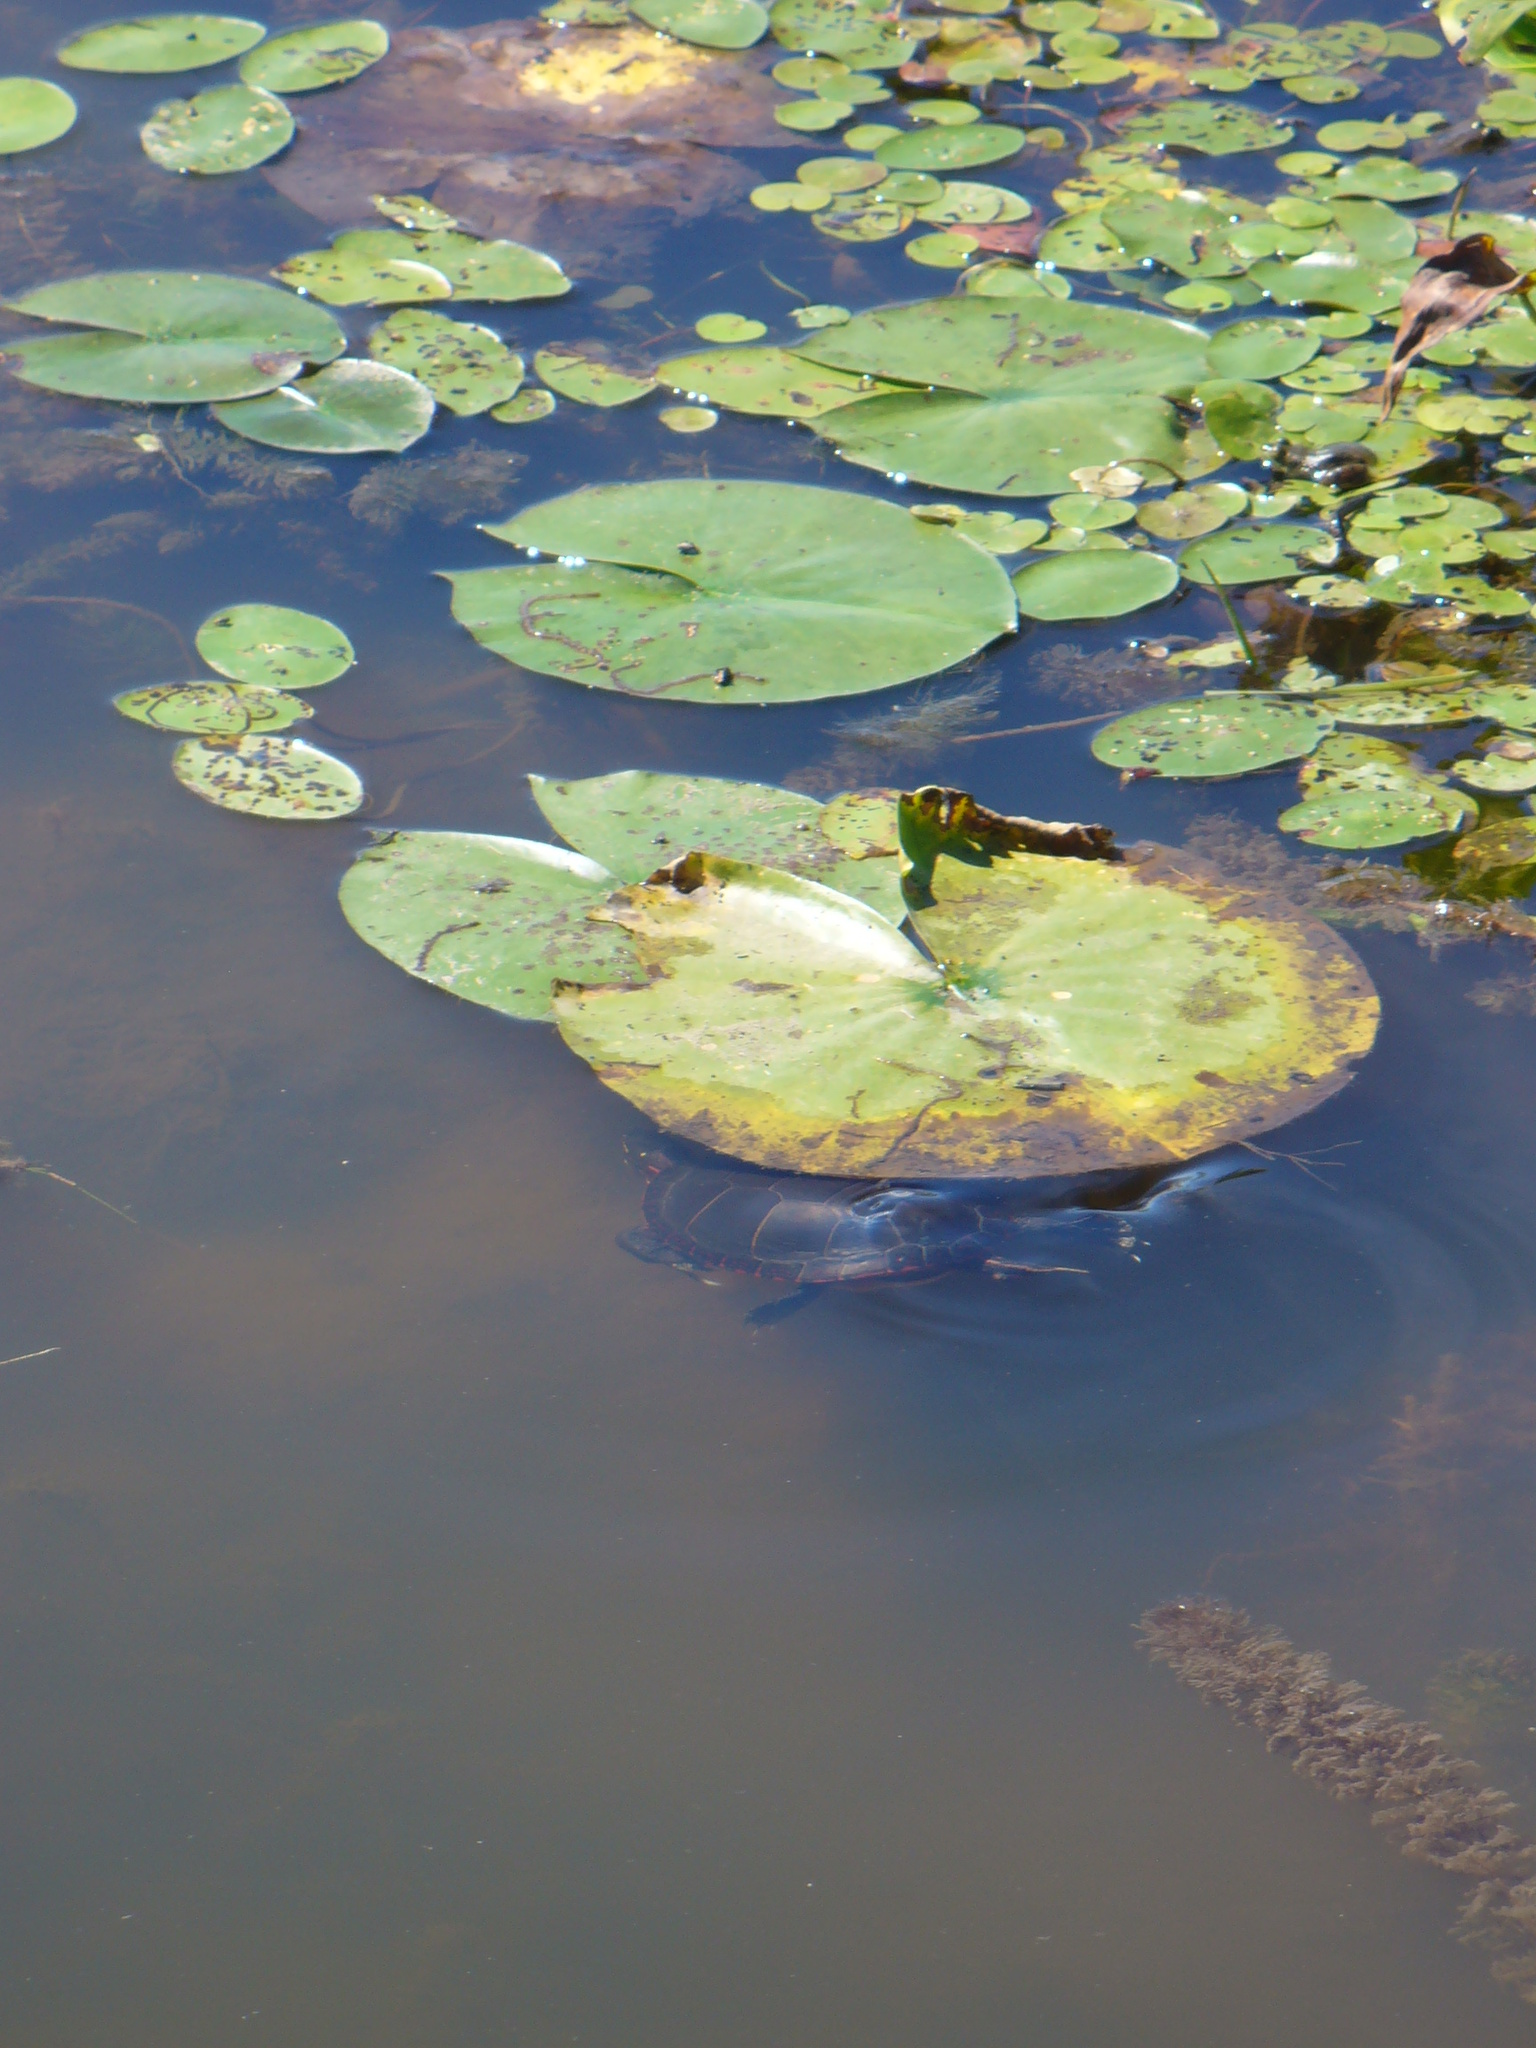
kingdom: Animalia
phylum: Chordata
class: Testudines
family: Emydidae
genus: Chrysemys
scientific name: Chrysemys picta
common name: Painted turtle
